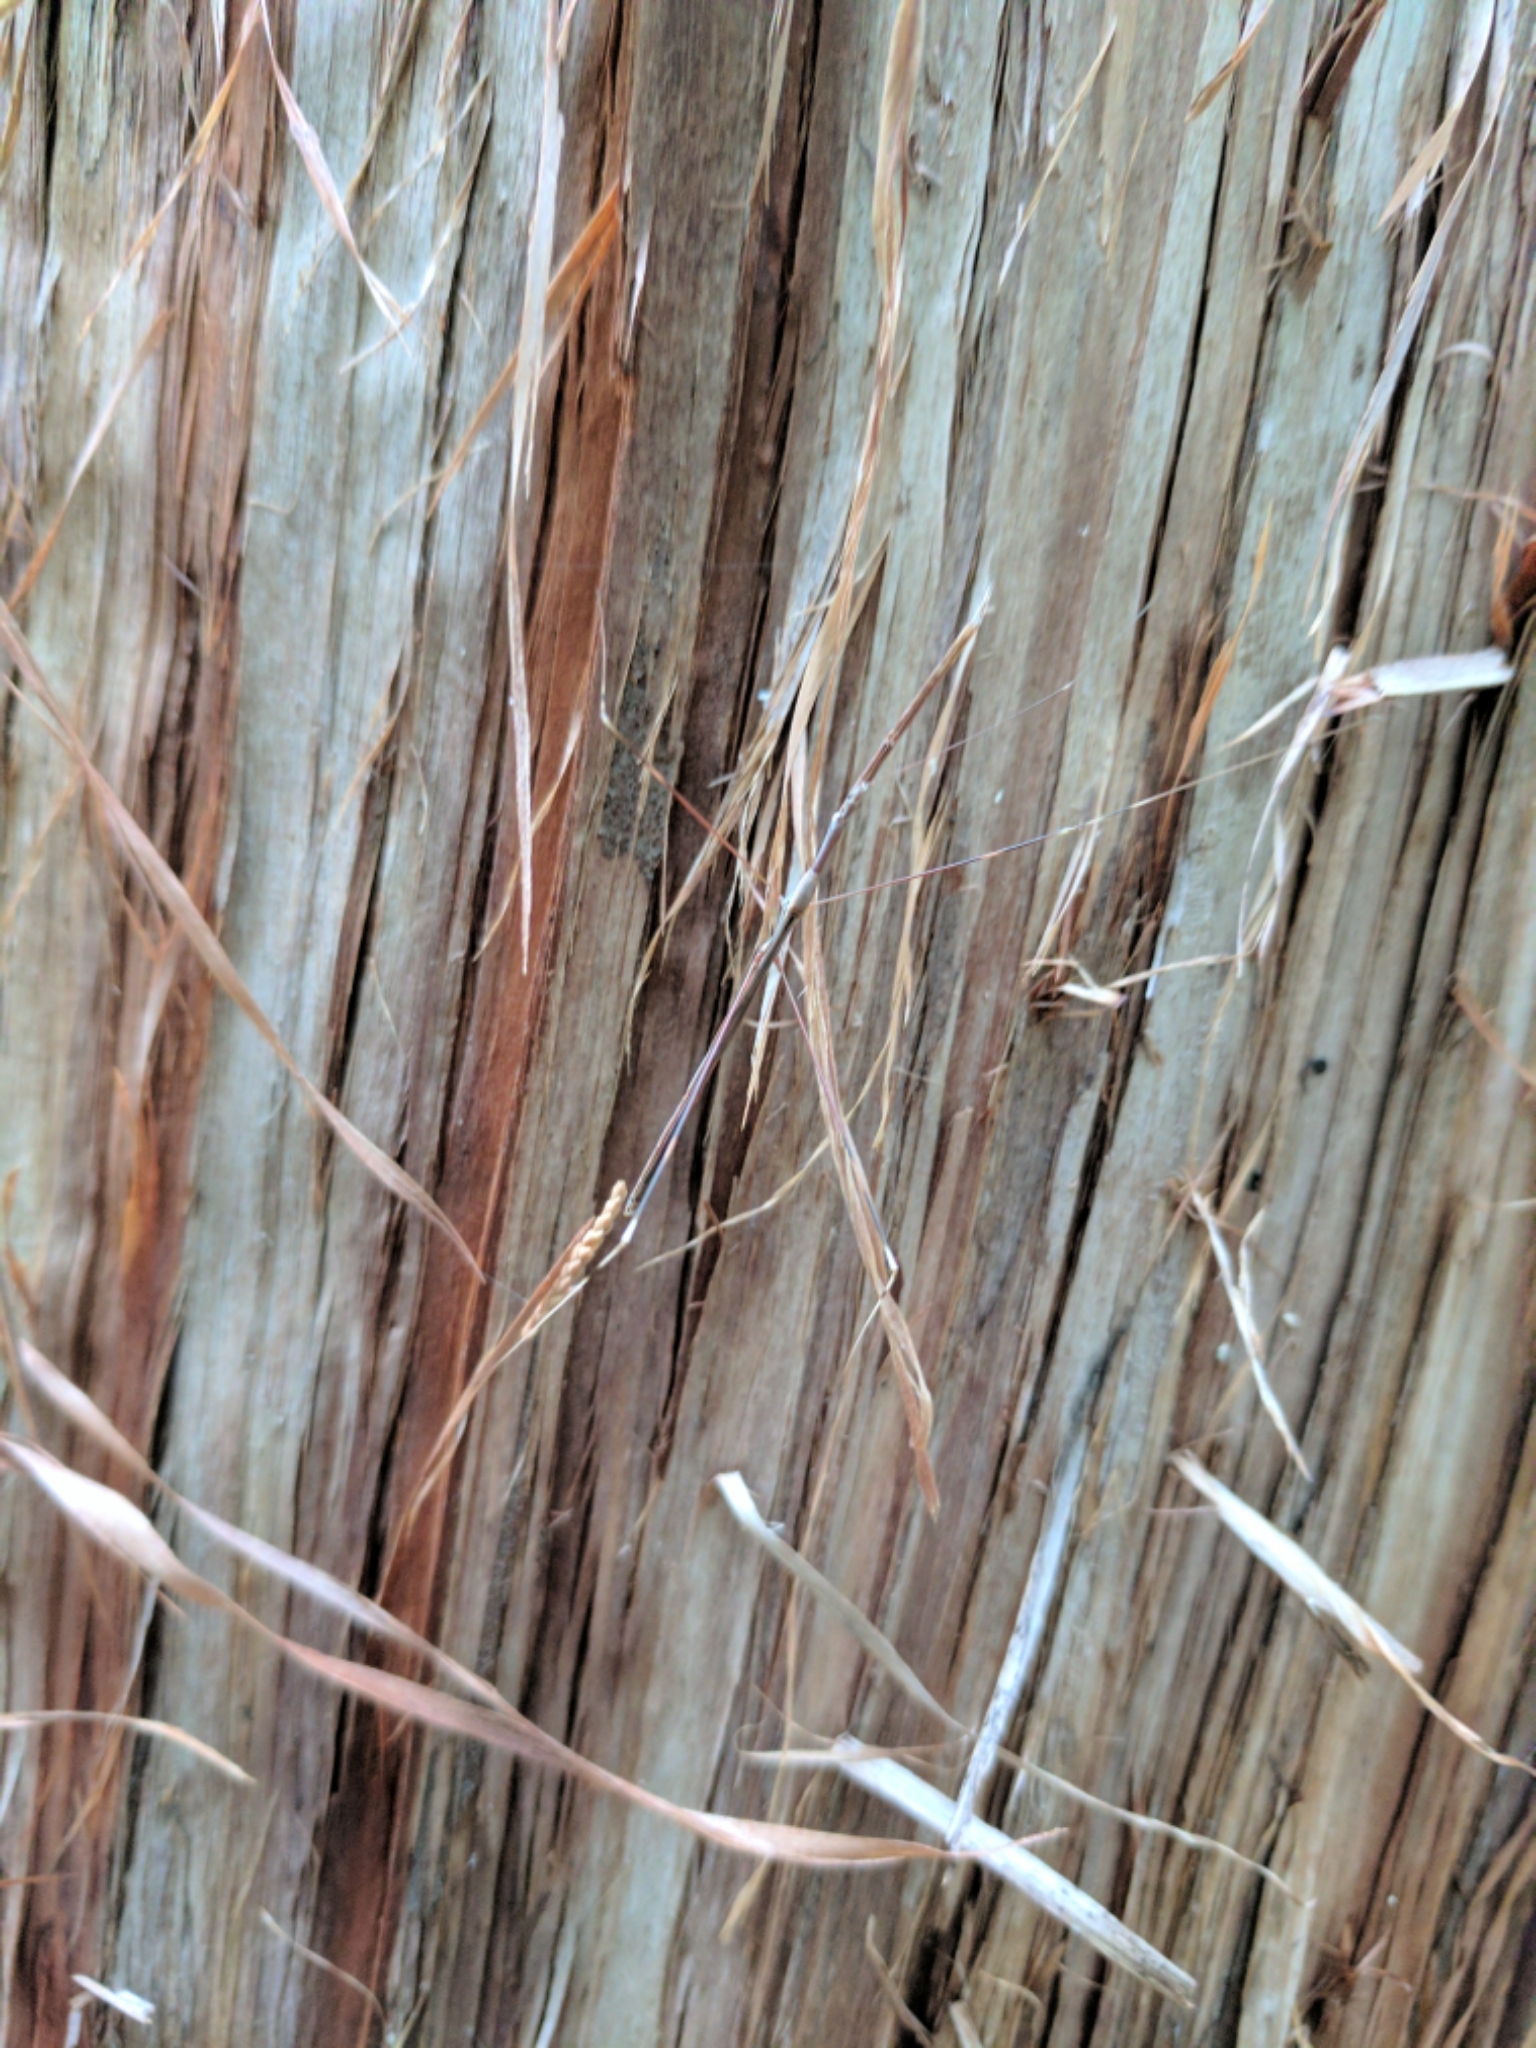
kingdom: Animalia
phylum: Arthropoda
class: Insecta
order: Hemiptera
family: Reduviidae
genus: Ghinallelia
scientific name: Ghinallelia productilis
